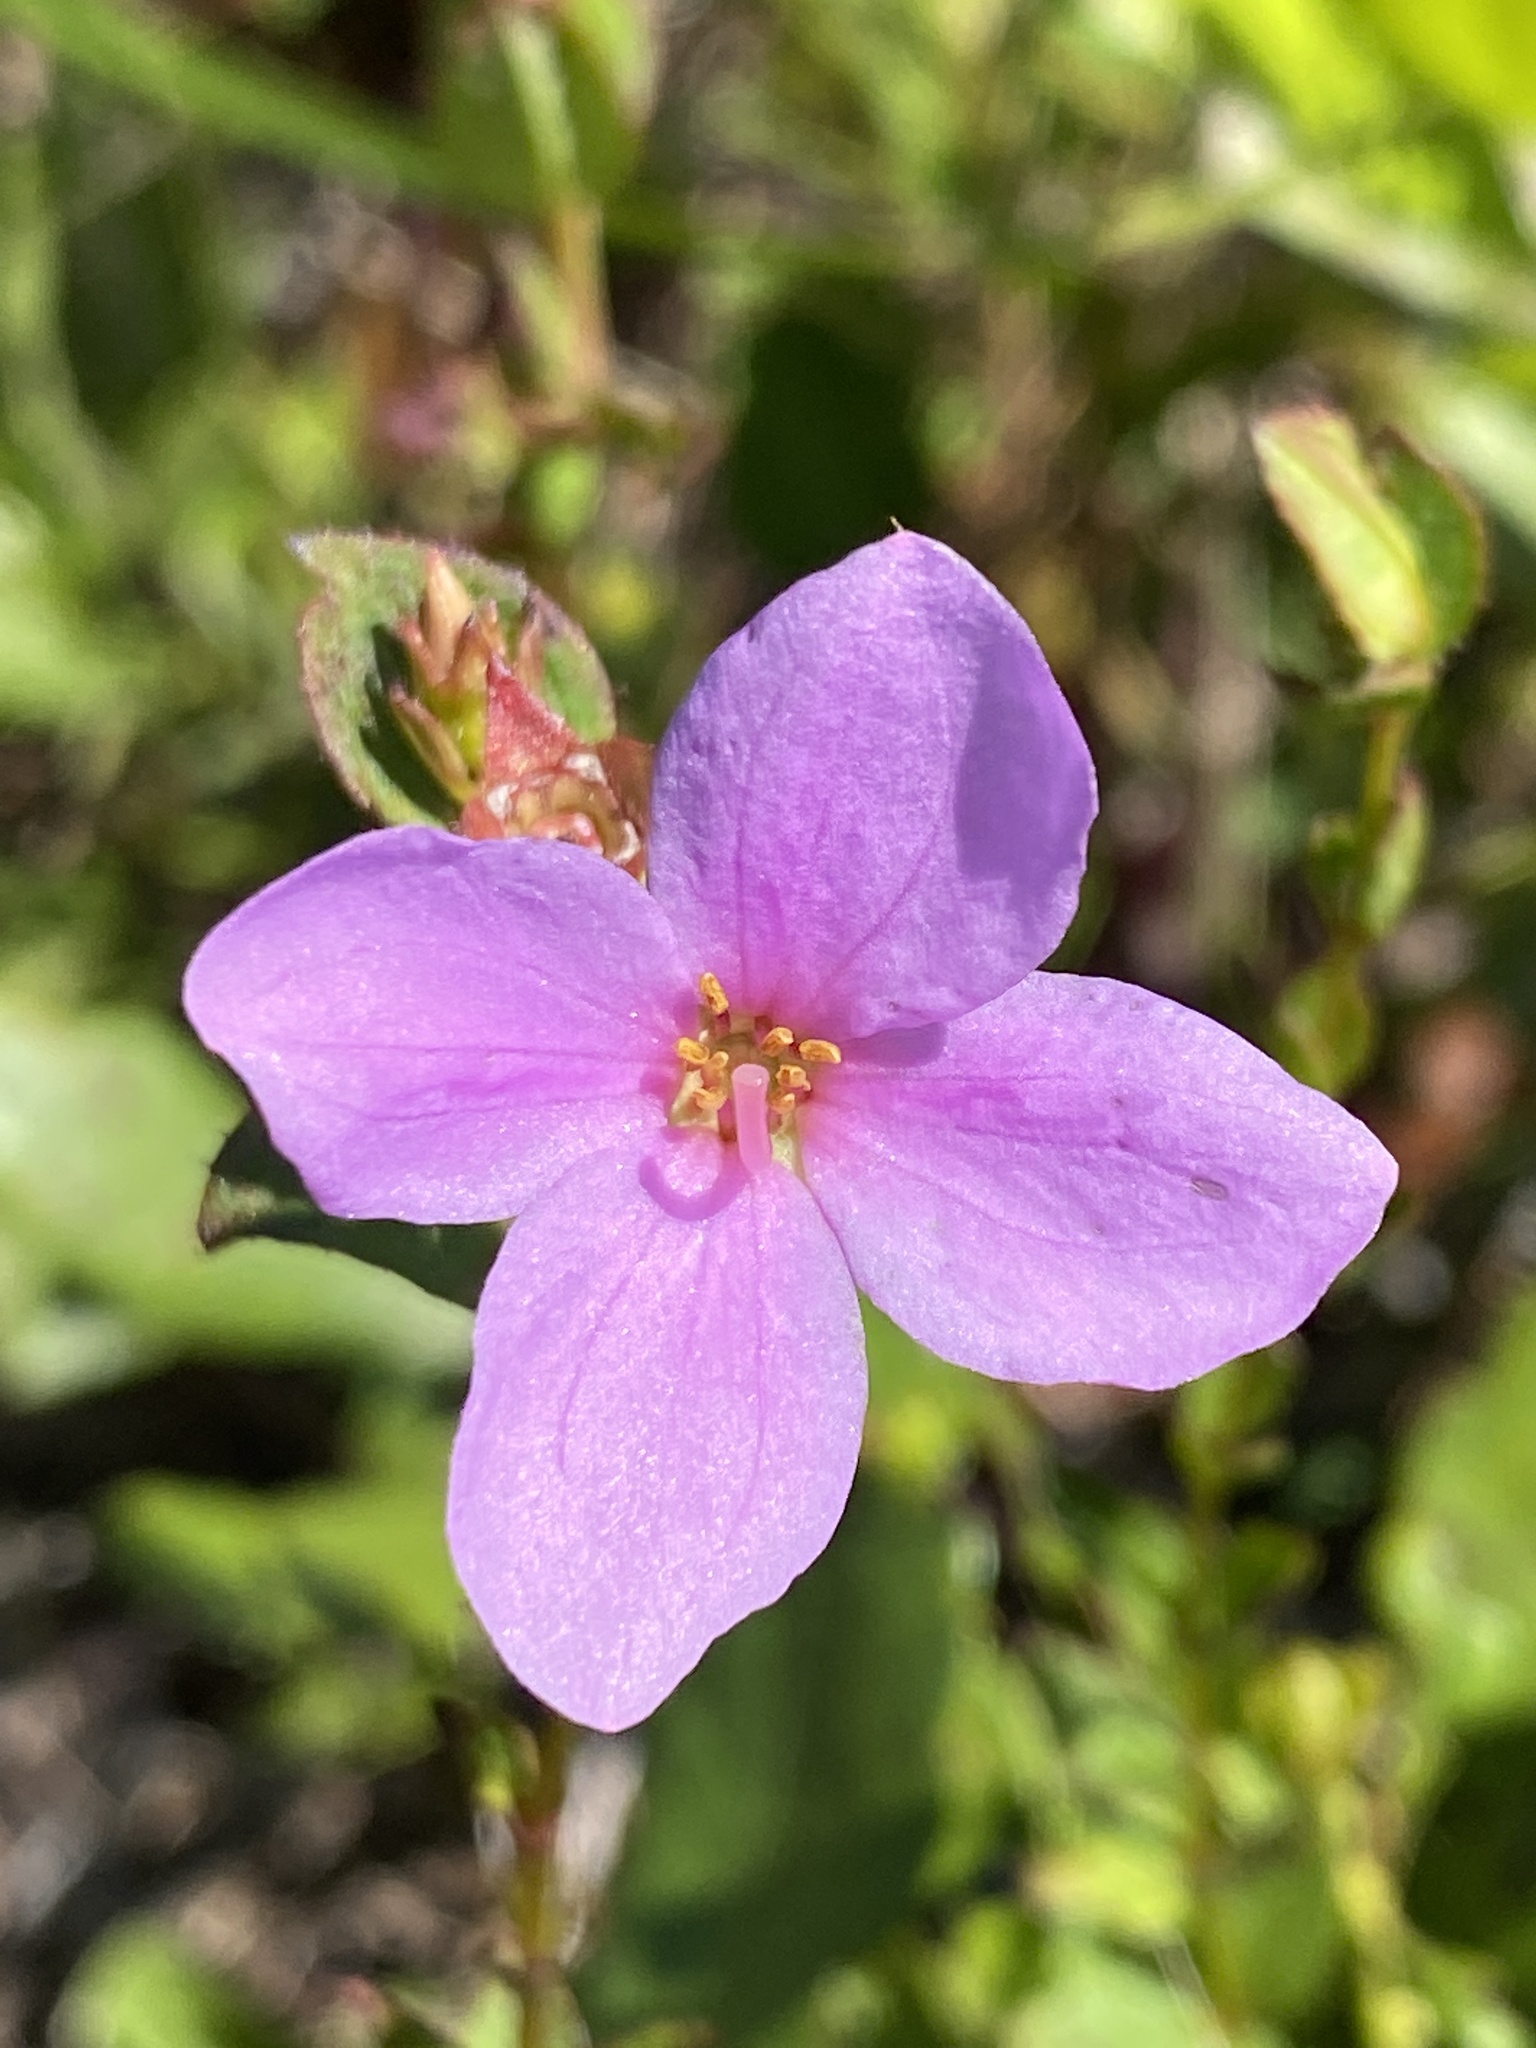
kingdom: Plantae
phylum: Tracheophyta
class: Magnoliopsida
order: Myrtales
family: Melastomataceae
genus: Rhexia
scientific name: Rhexia petiolata
